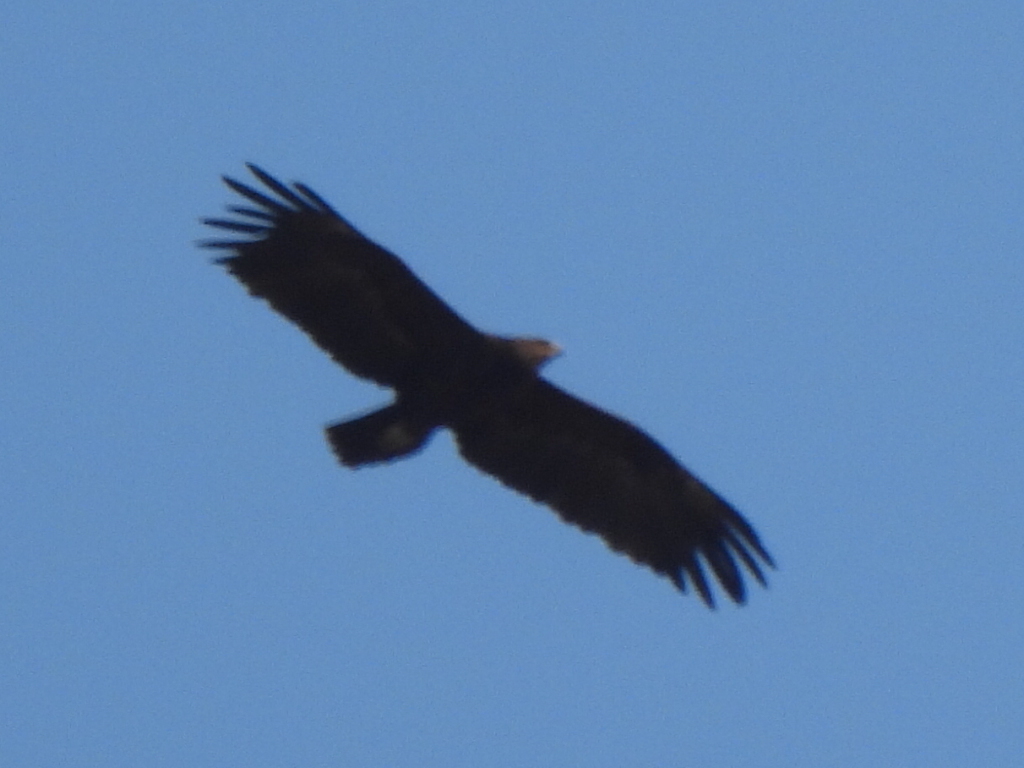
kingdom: Animalia
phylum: Chordata
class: Aves
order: Accipitriformes
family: Accipitridae
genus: Aquila
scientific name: Aquila clanga
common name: Greater spotted eagle
